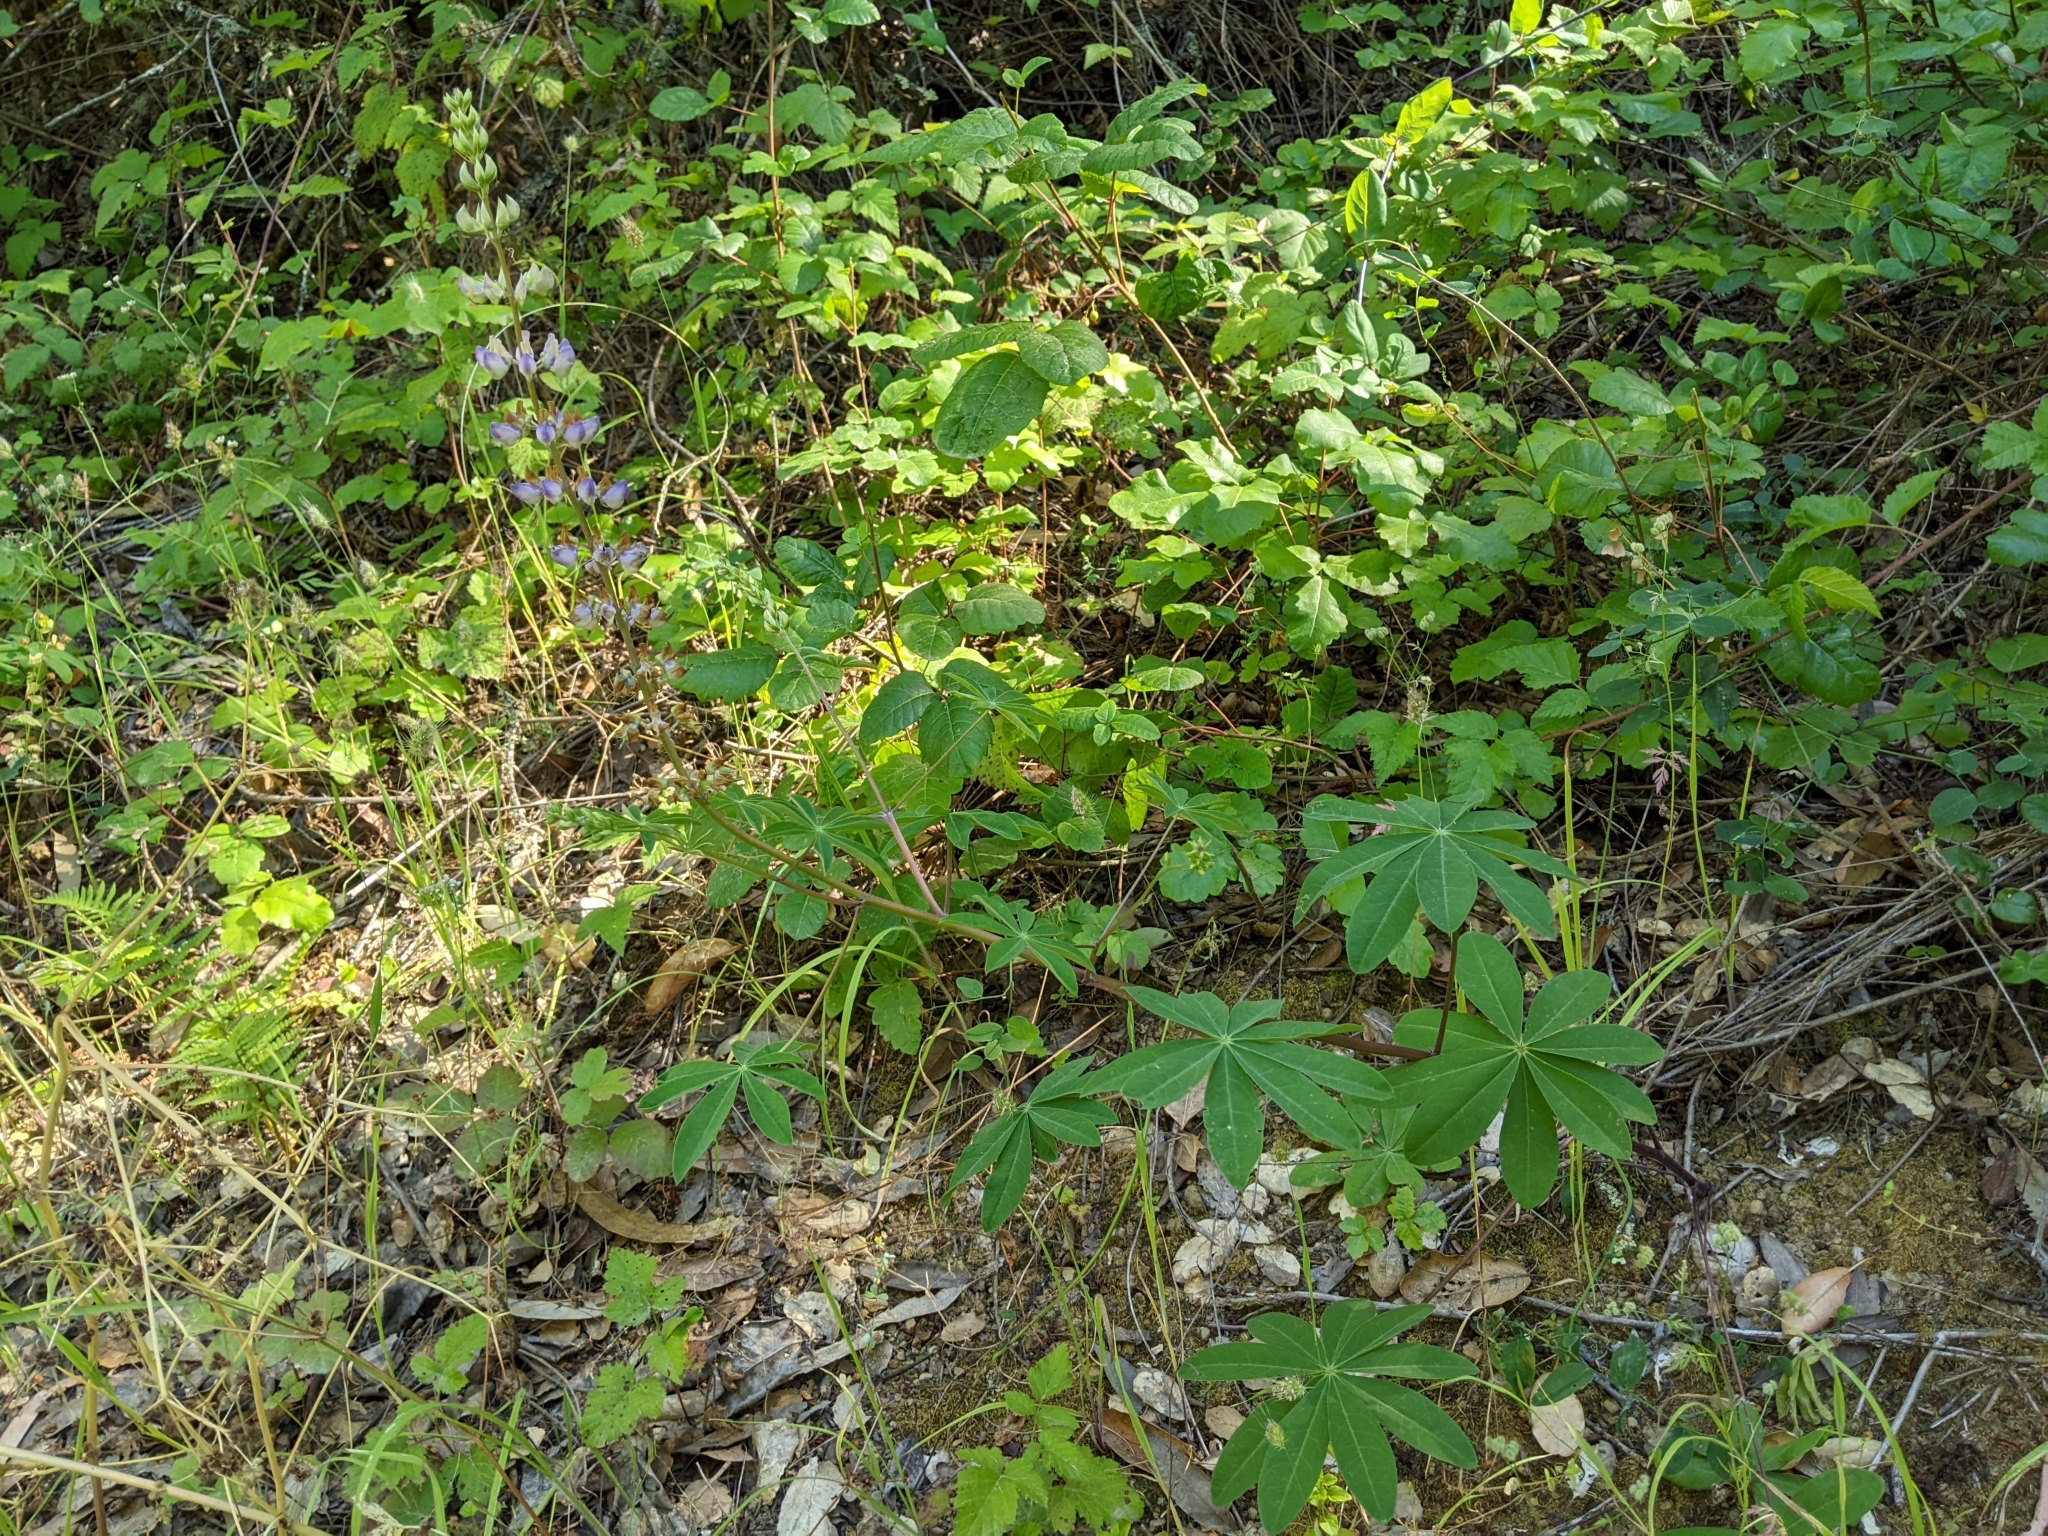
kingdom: Plantae
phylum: Tracheophyta
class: Magnoliopsida
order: Fabales
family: Fabaceae
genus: Lupinus
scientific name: Lupinus latifolius
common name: Broad-leaved lupine
